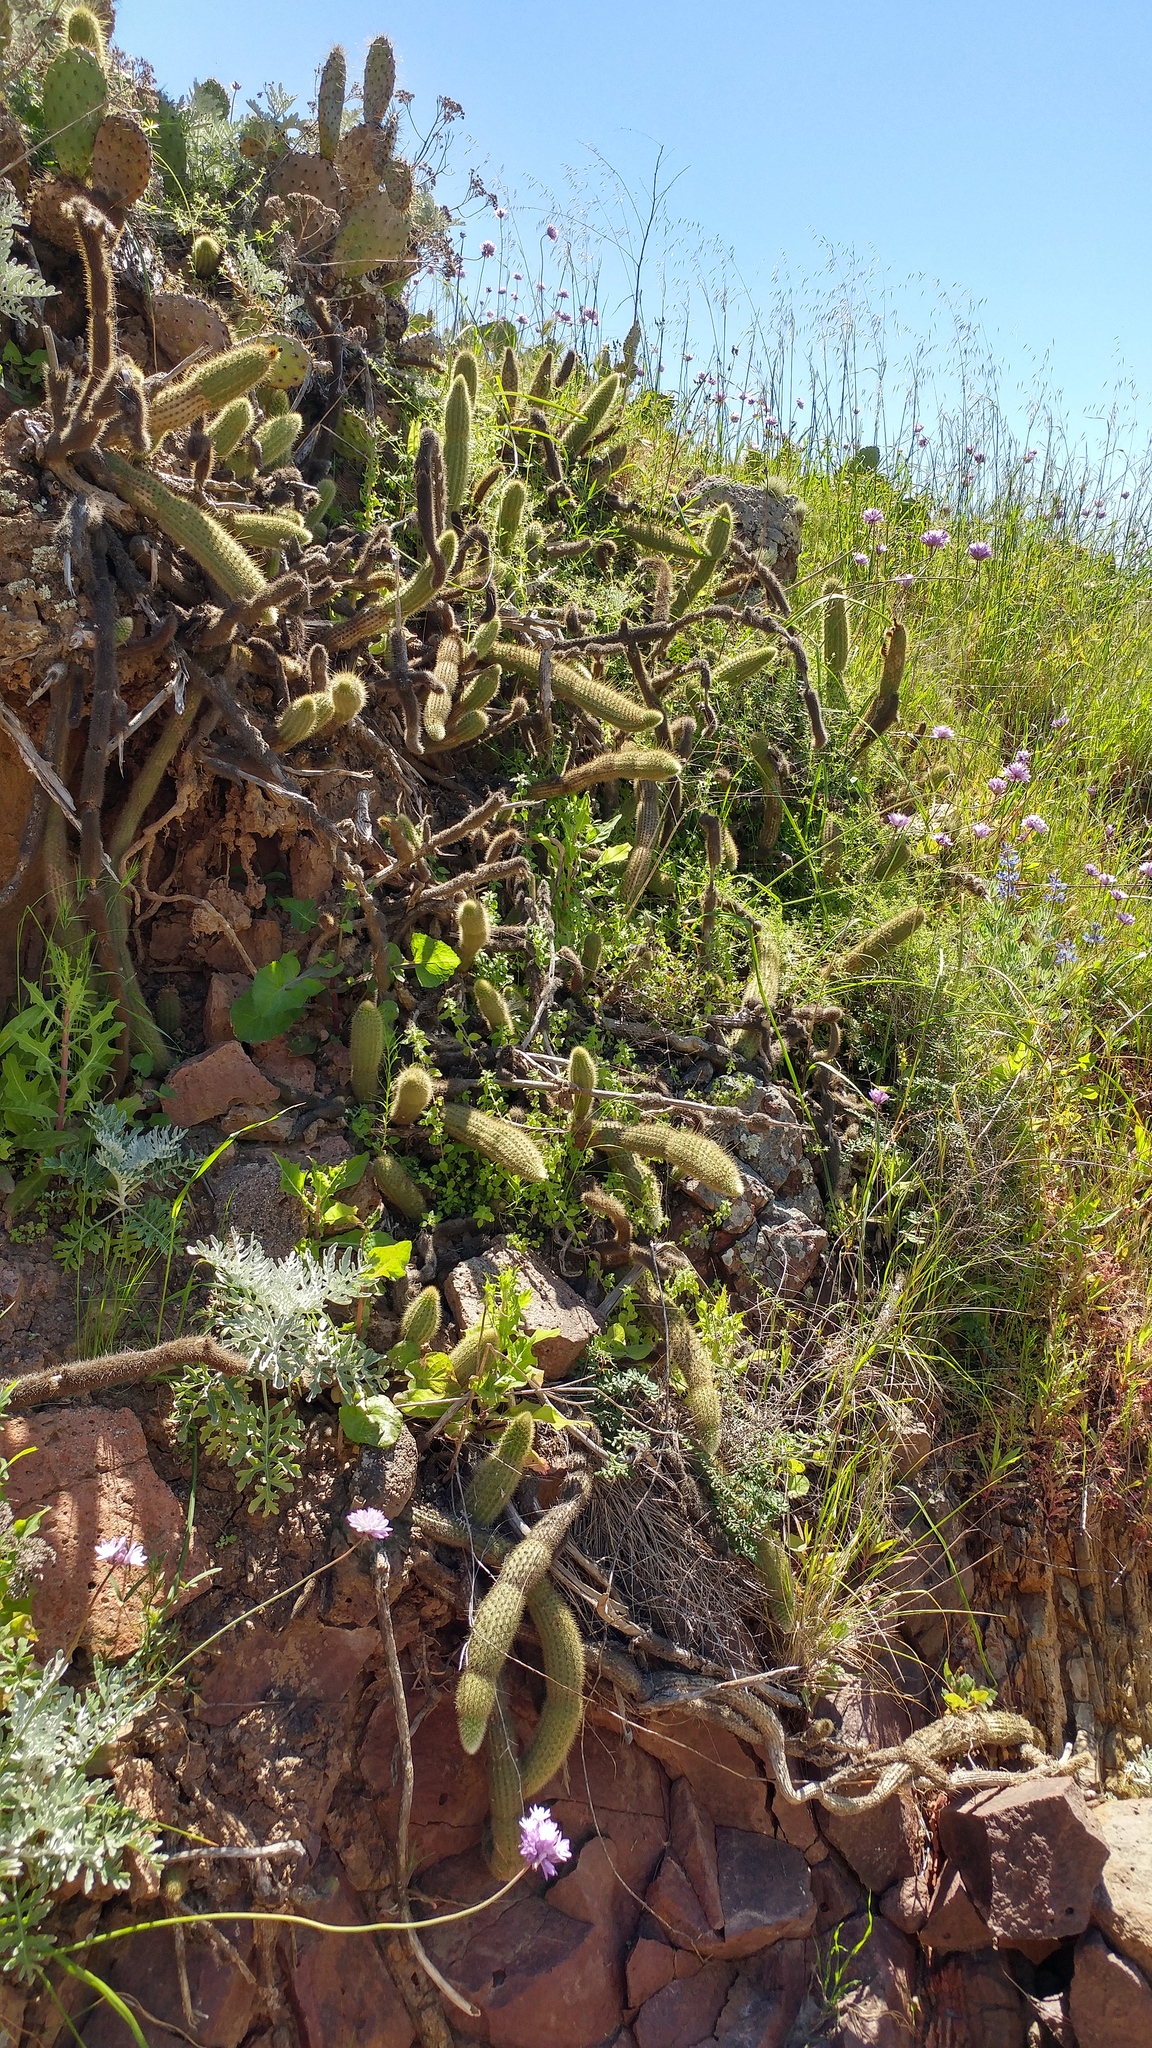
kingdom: Plantae
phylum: Tracheophyta
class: Magnoliopsida
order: Caryophyllales
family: Cactaceae
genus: Bergerocactus
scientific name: Bergerocactus emoryi
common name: Golden snakecactus
